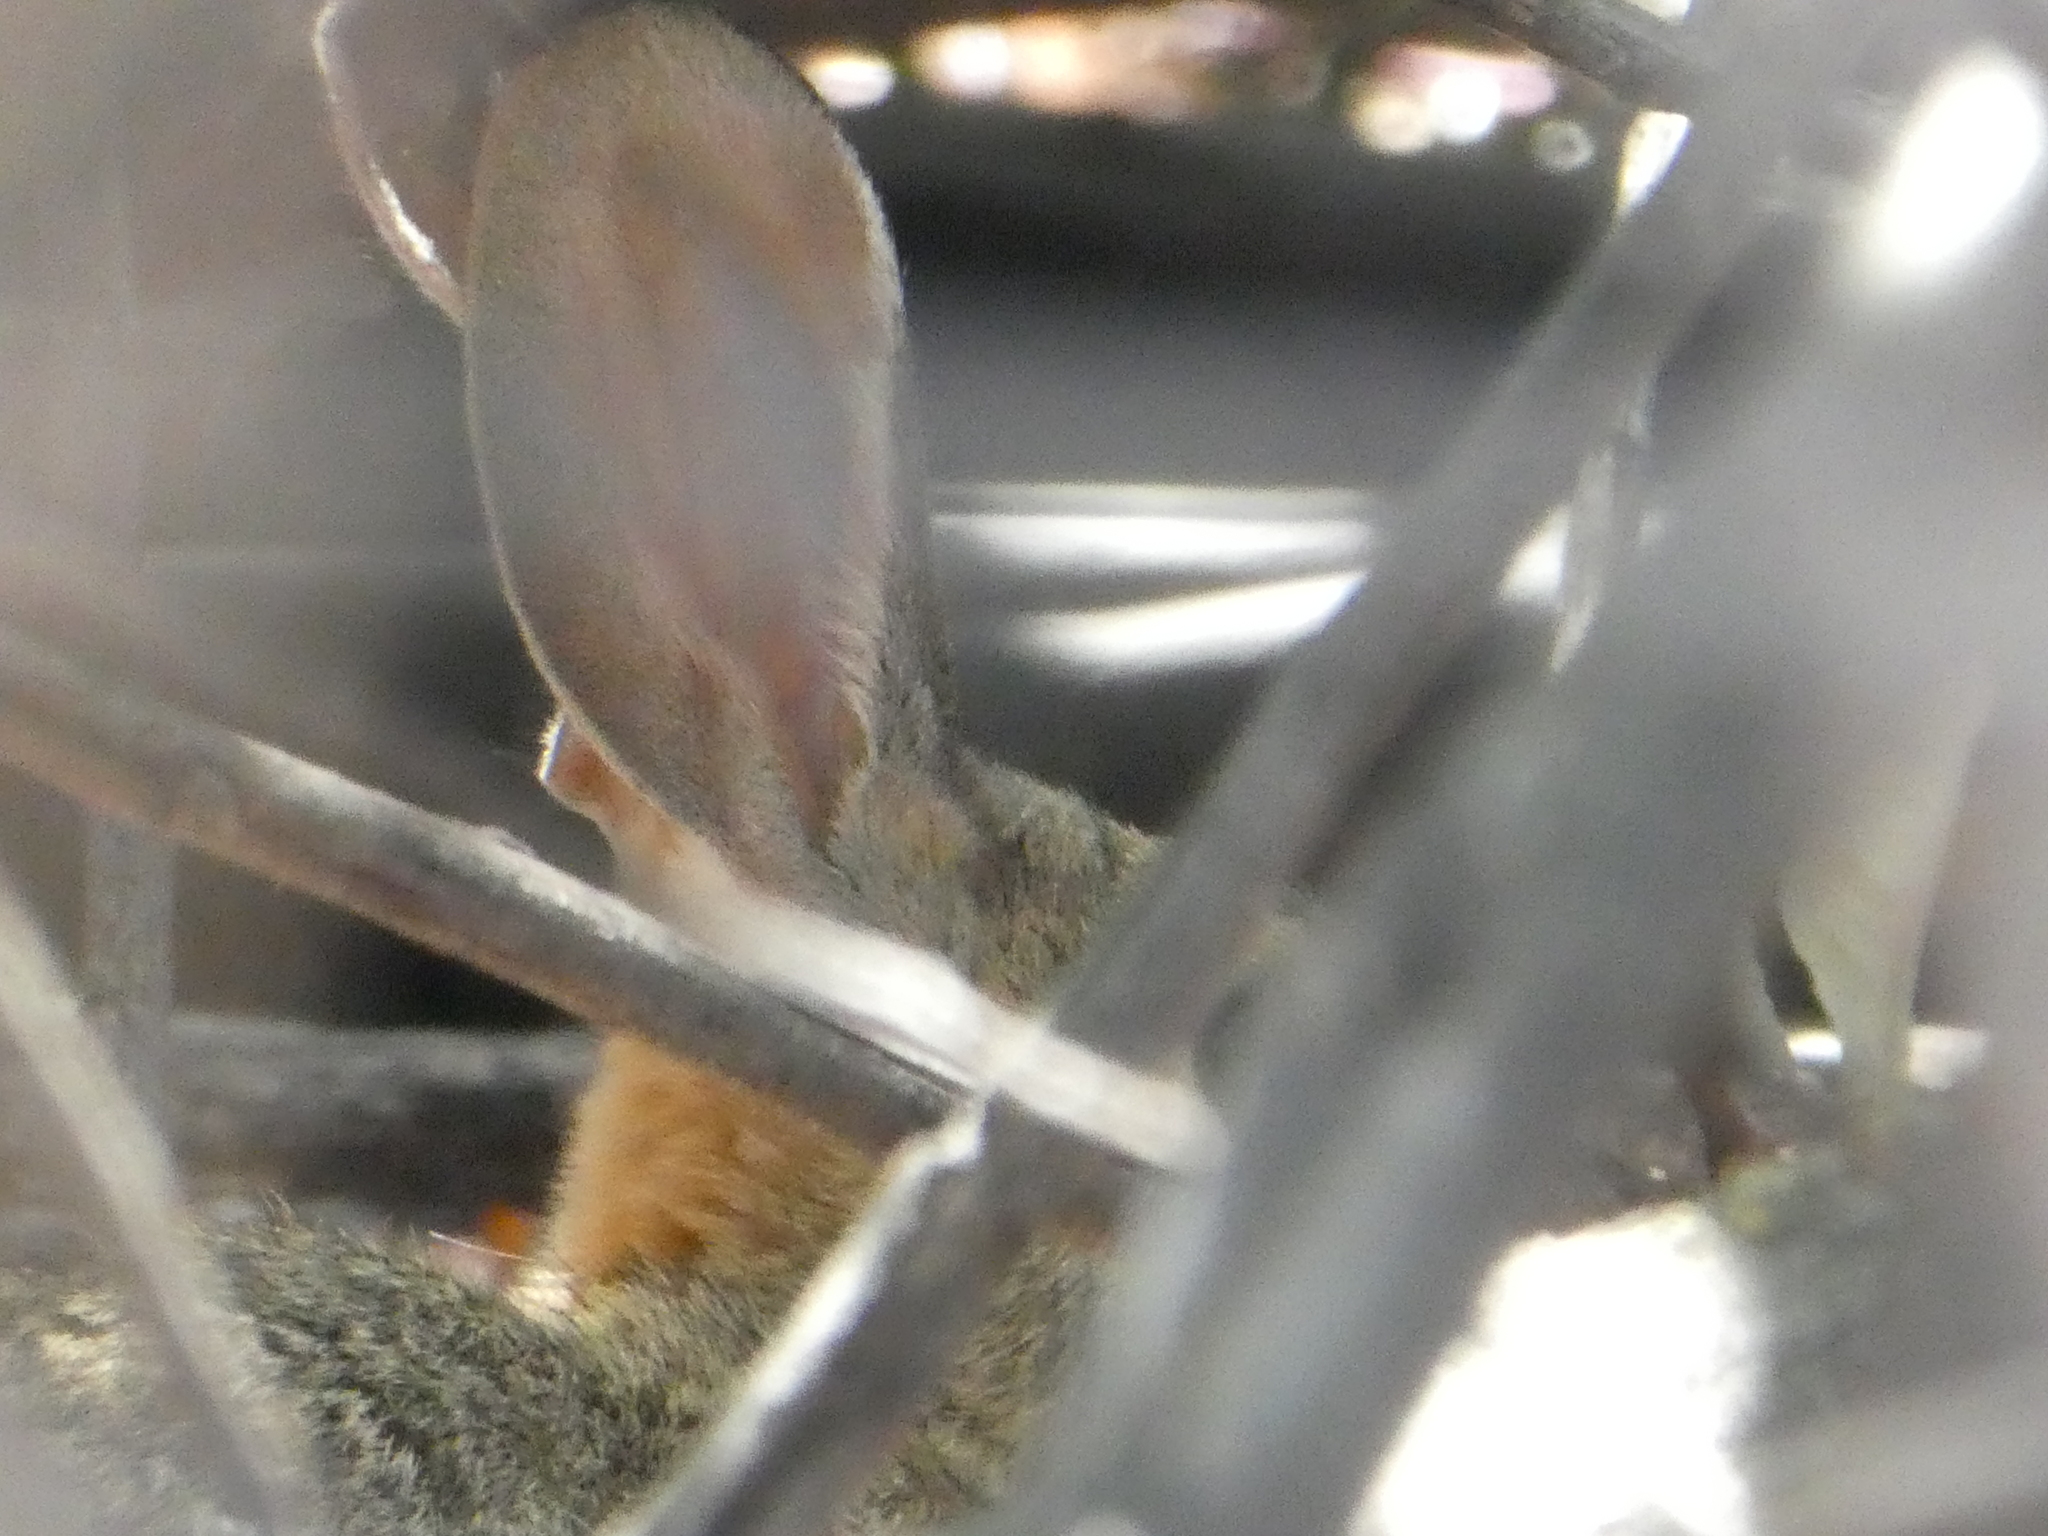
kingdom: Animalia
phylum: Chordata
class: Mammalia
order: Lagomorpha
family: Leporidae
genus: Sylvilagus
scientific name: Sylvilagus audubonii
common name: Desert cottontail
